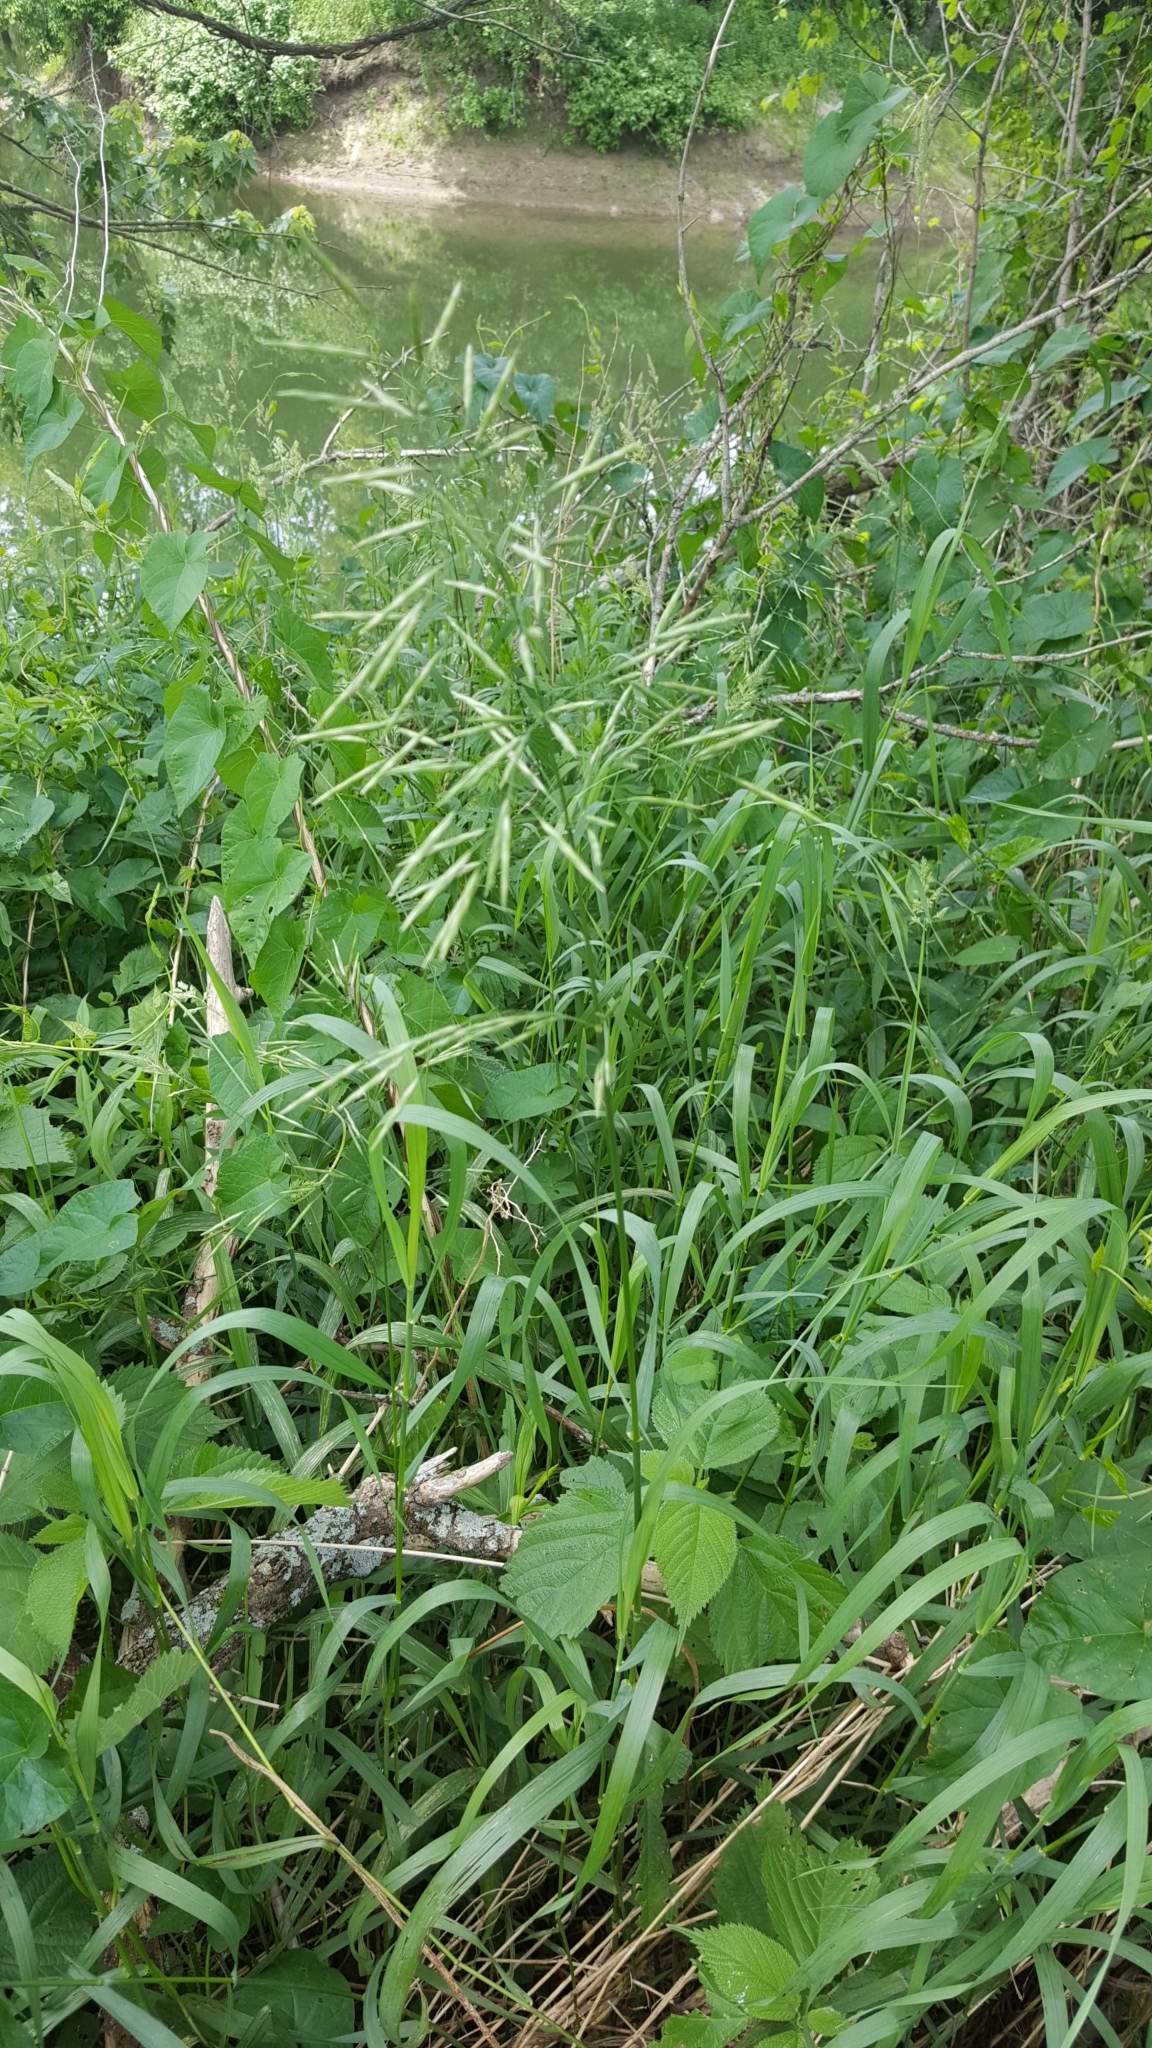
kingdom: Plantae
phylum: Tracheophyta
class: Liliopsida
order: Poales
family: Poaceae
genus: Bromus
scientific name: Bromus inermis
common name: Smooth brome
